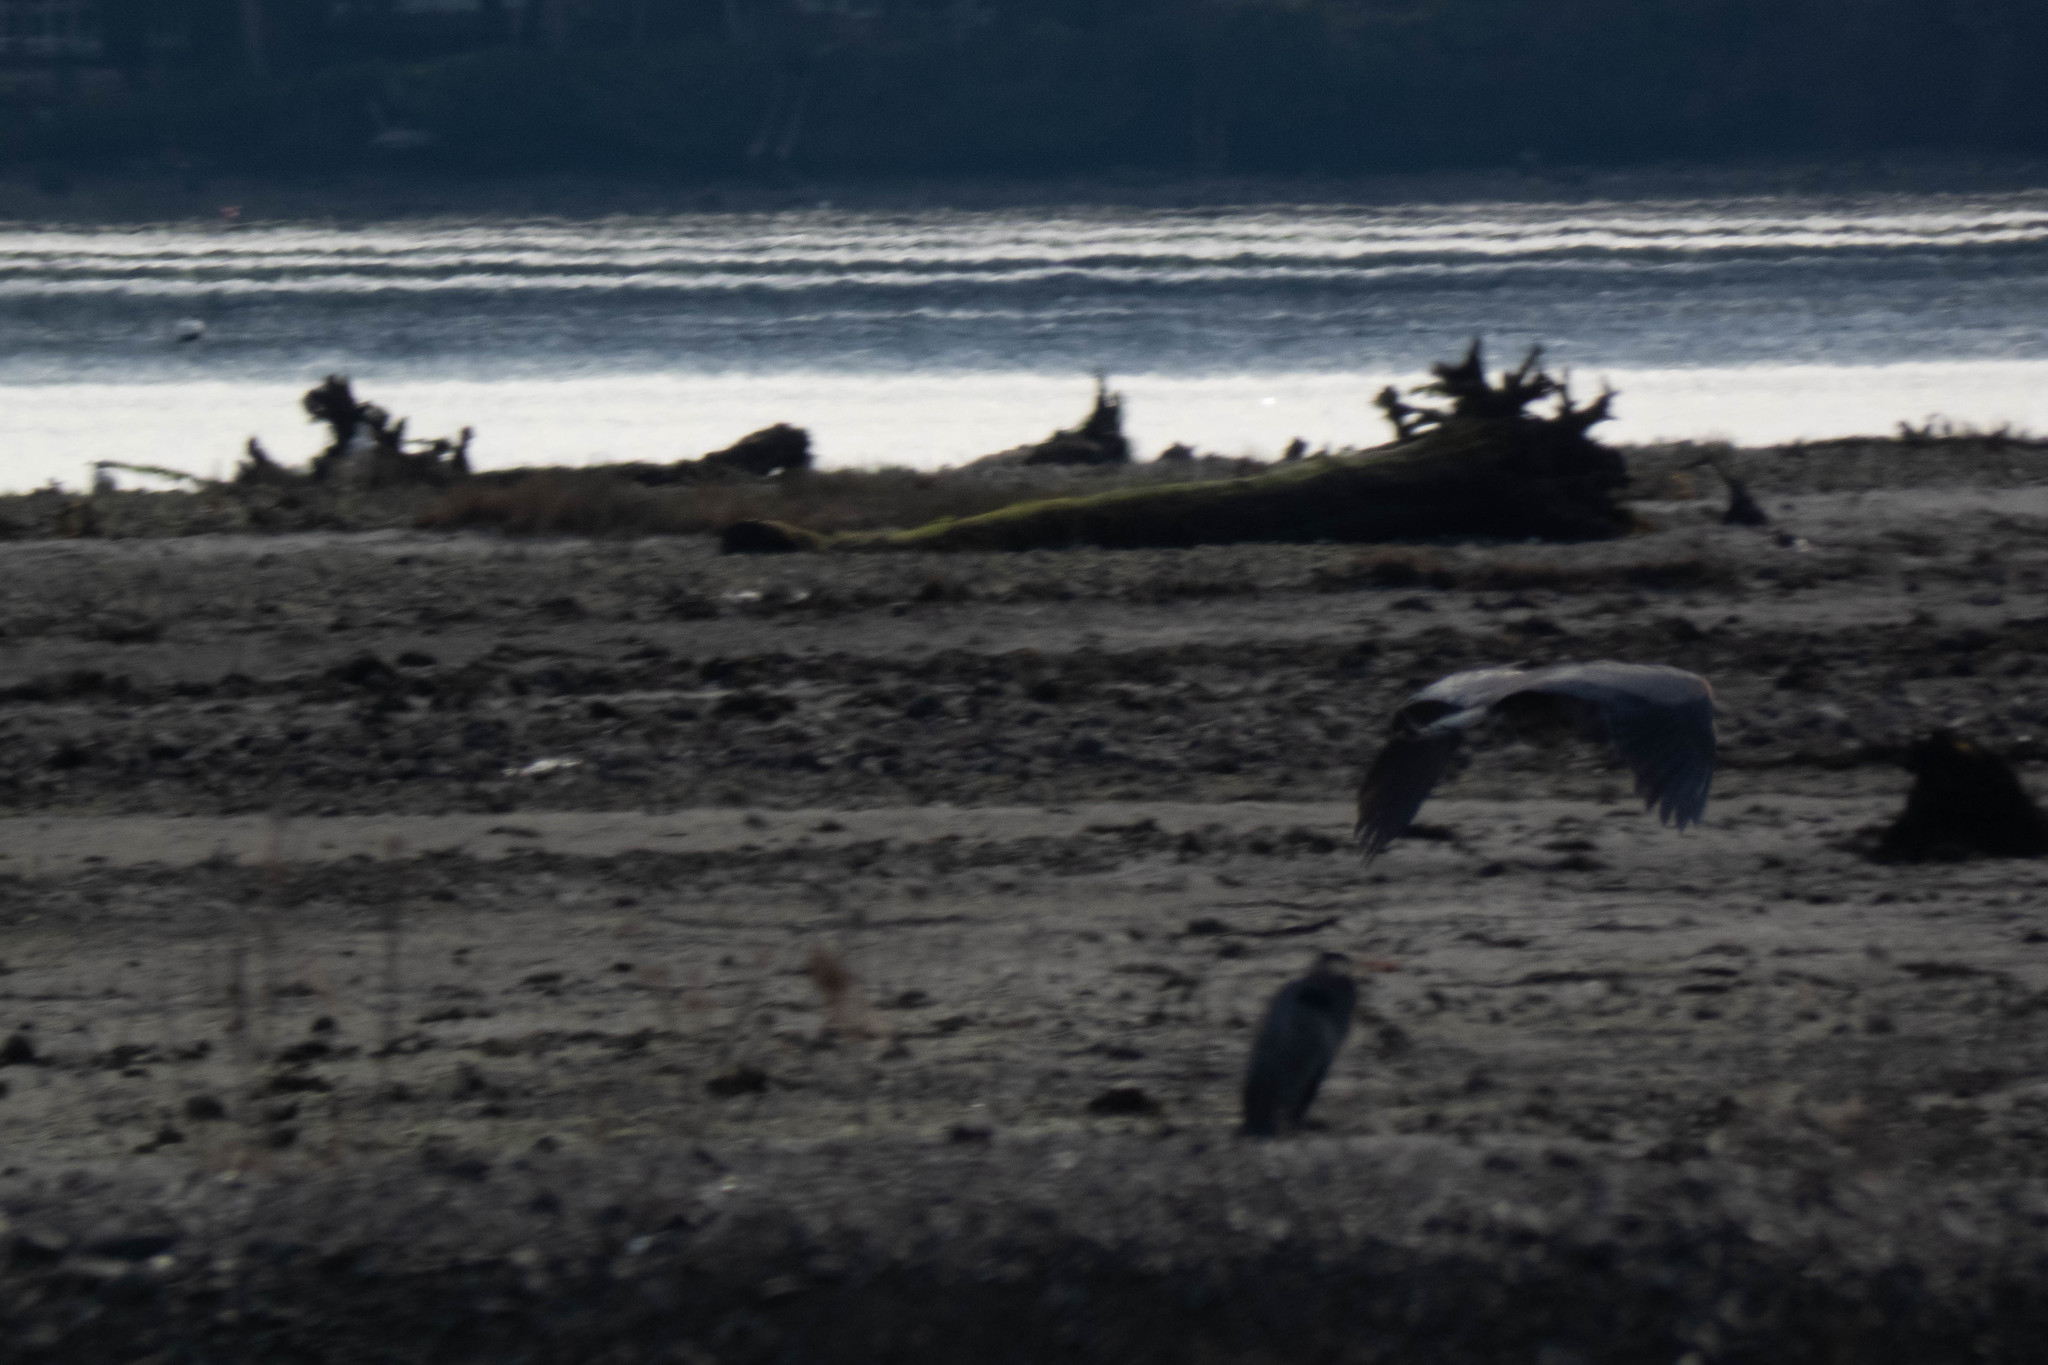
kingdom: Animalia
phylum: Chordata
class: Aves
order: Pelecaniformes
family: Ardeidae
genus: Ardea
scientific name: Ardea herodias
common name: Great blue heron
